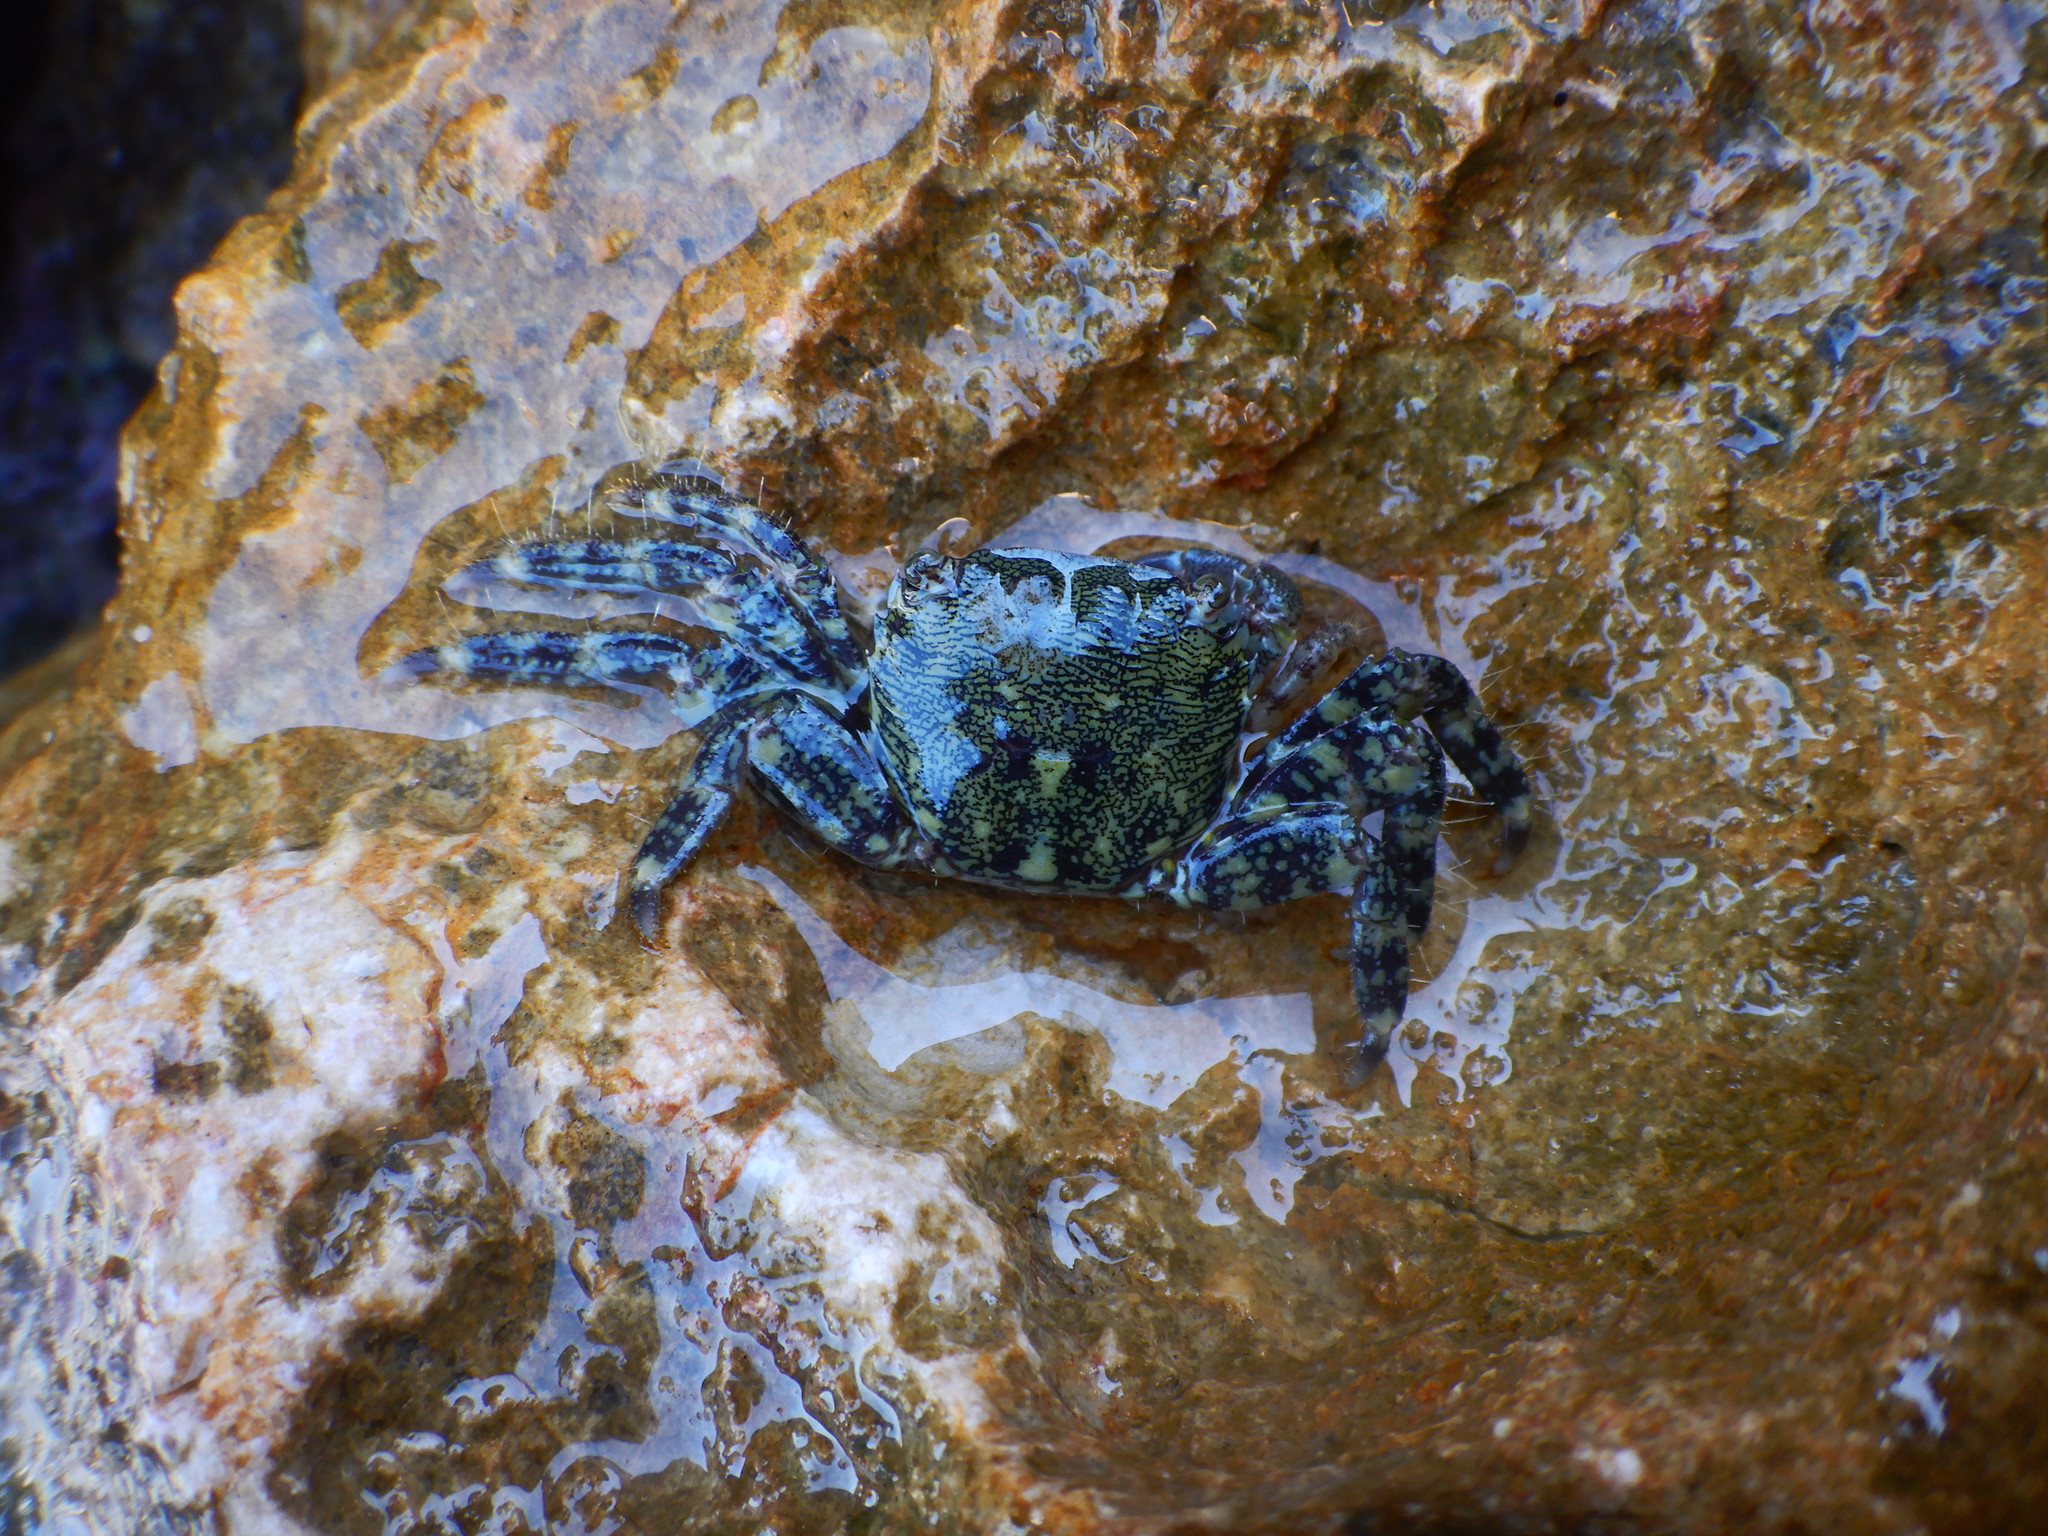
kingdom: Animalia
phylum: Arthropoda
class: Malacostraca
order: Decapoda
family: Grapsidae
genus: Pachygrapsus
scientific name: Pachygrapsus marmoratus
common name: Marbled rock crab
